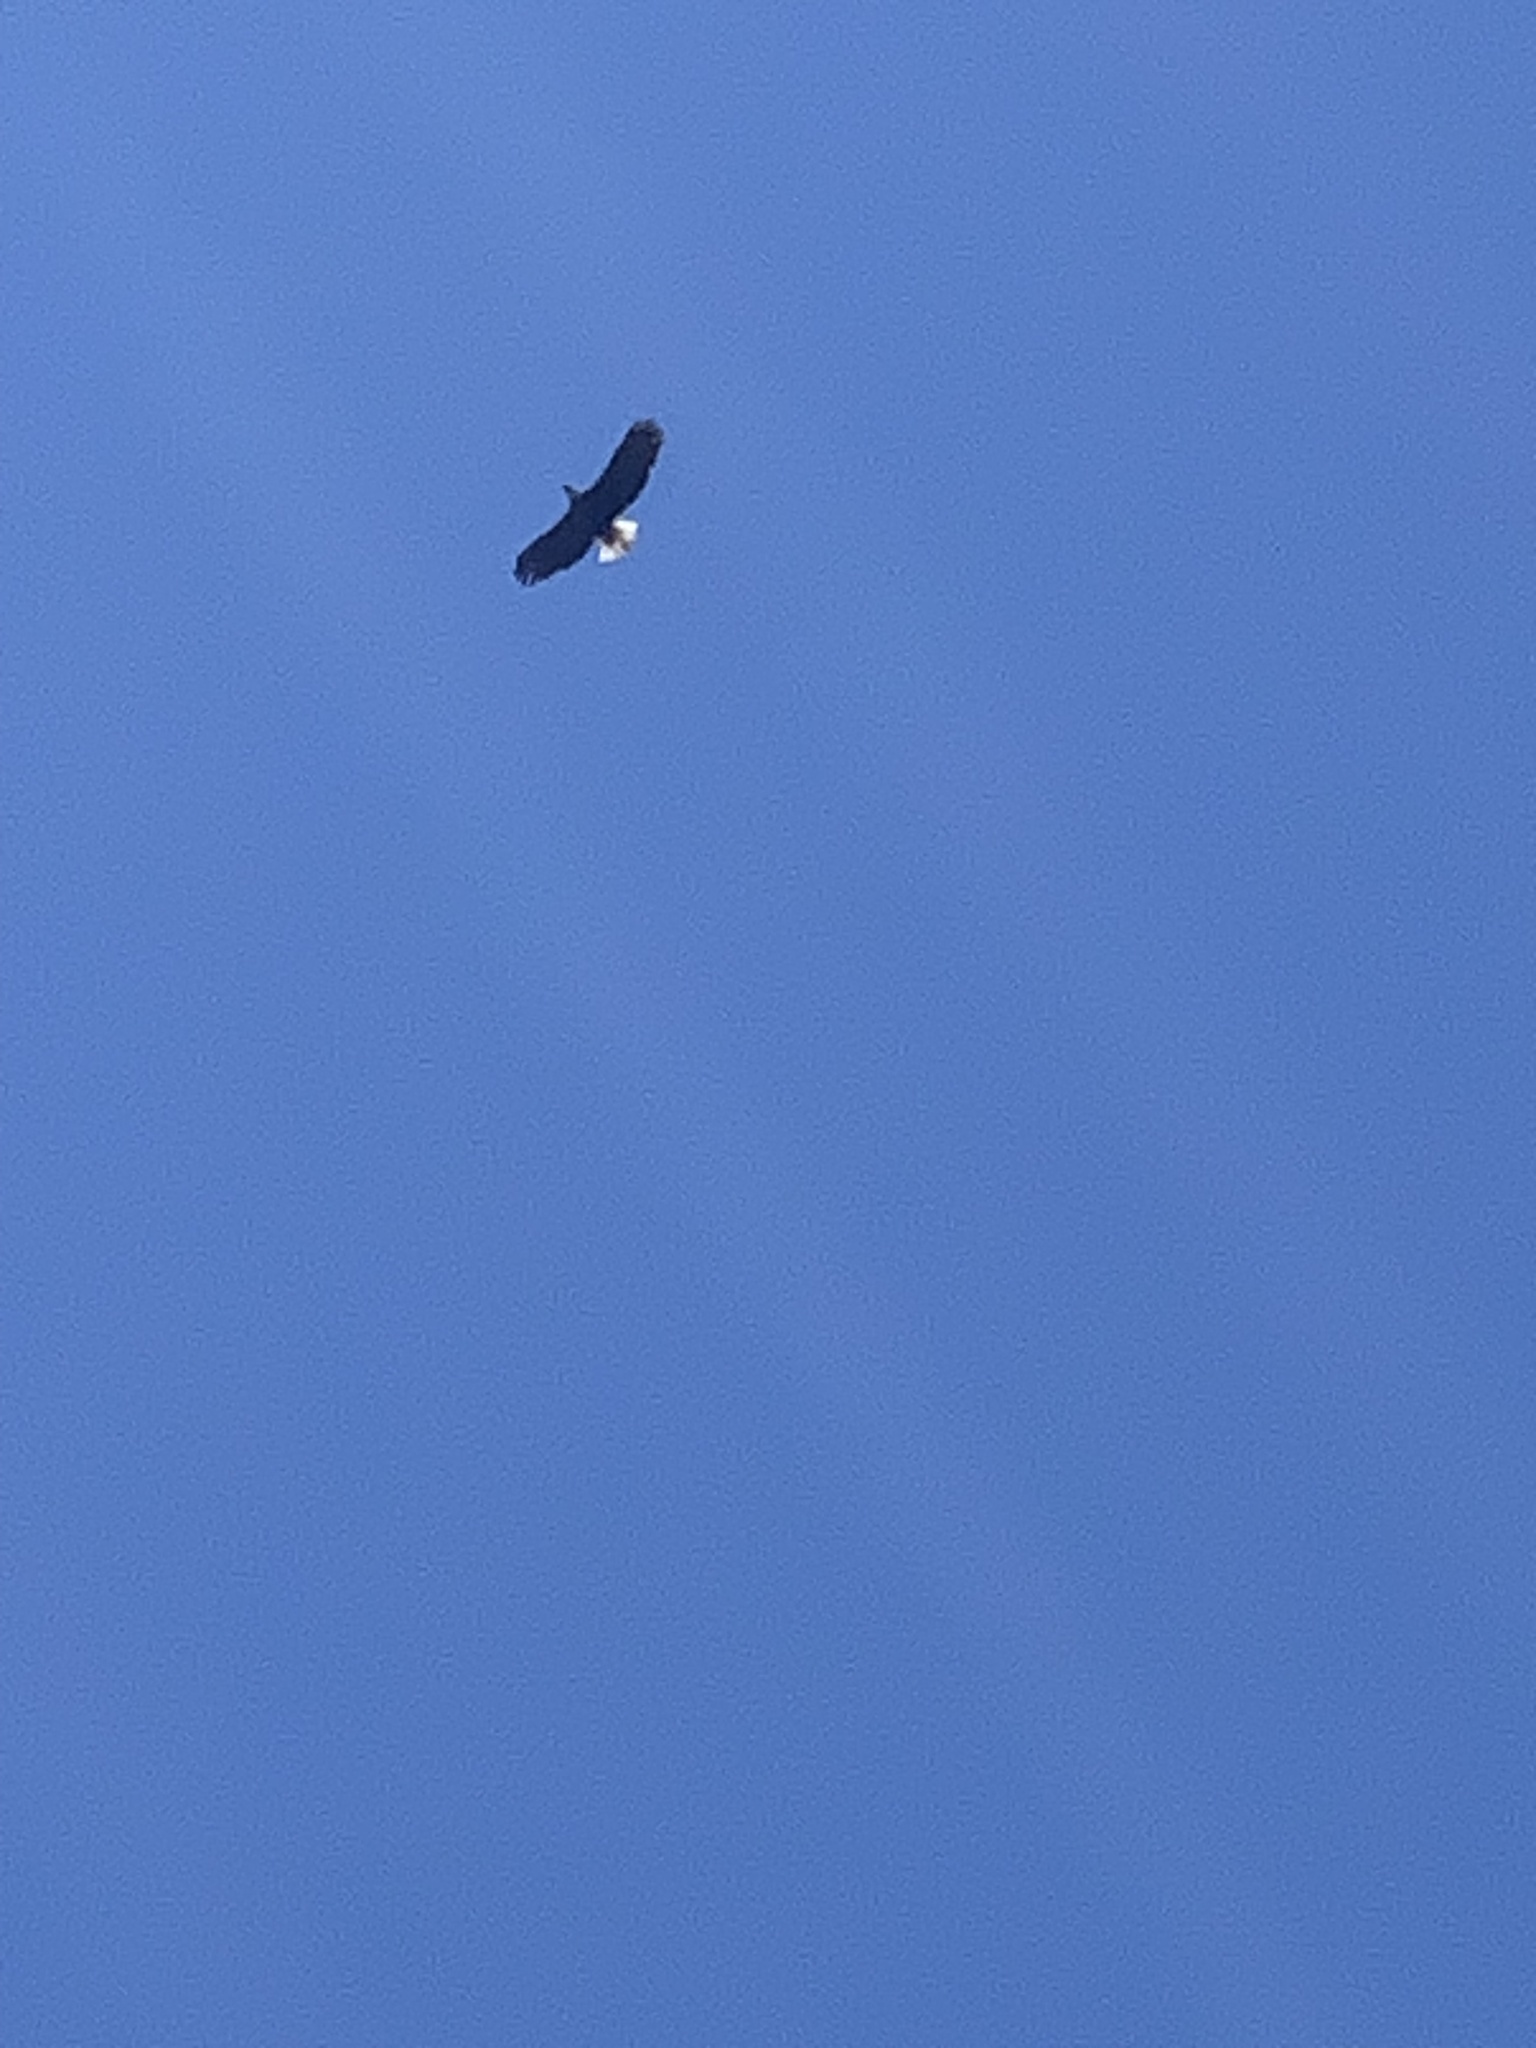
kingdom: Animalia
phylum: Chordata
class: Aves
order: Accipitriformes
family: Accipitridae
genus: Haliaeetus
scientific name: Haliaeetus leucocephalus
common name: Bald eagle
